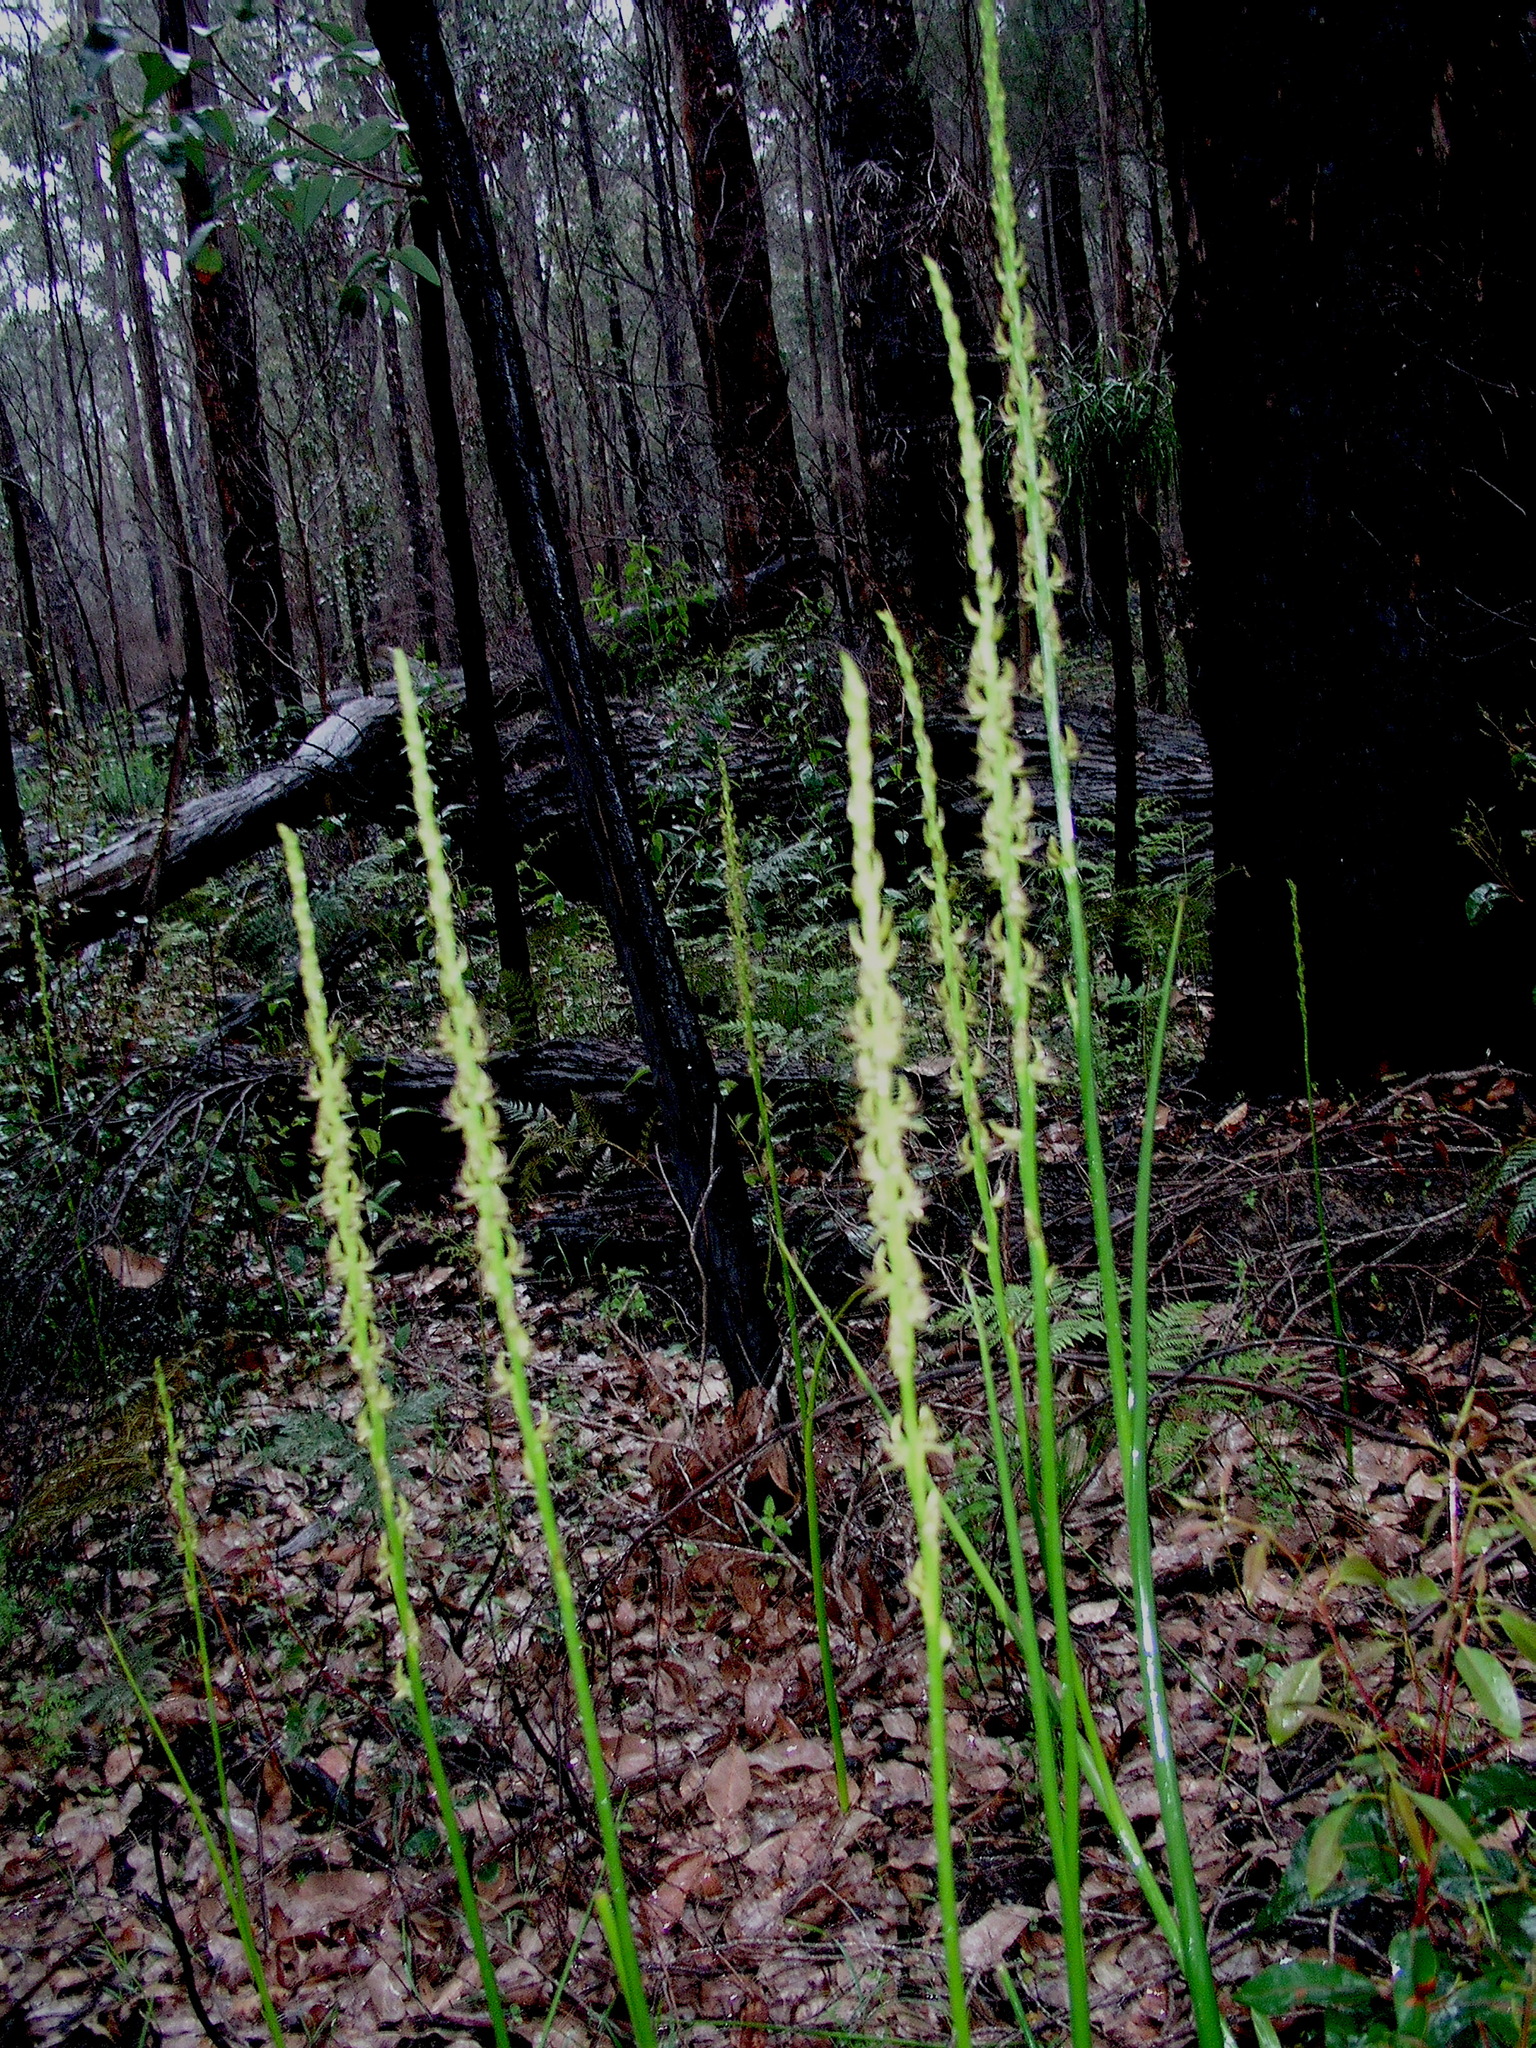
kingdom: Plantae
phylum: Tracheophyta
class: Liliopsida
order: Asparagales
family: Orchidaceae
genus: Prasophyllum
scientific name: Prasophyllum regium
